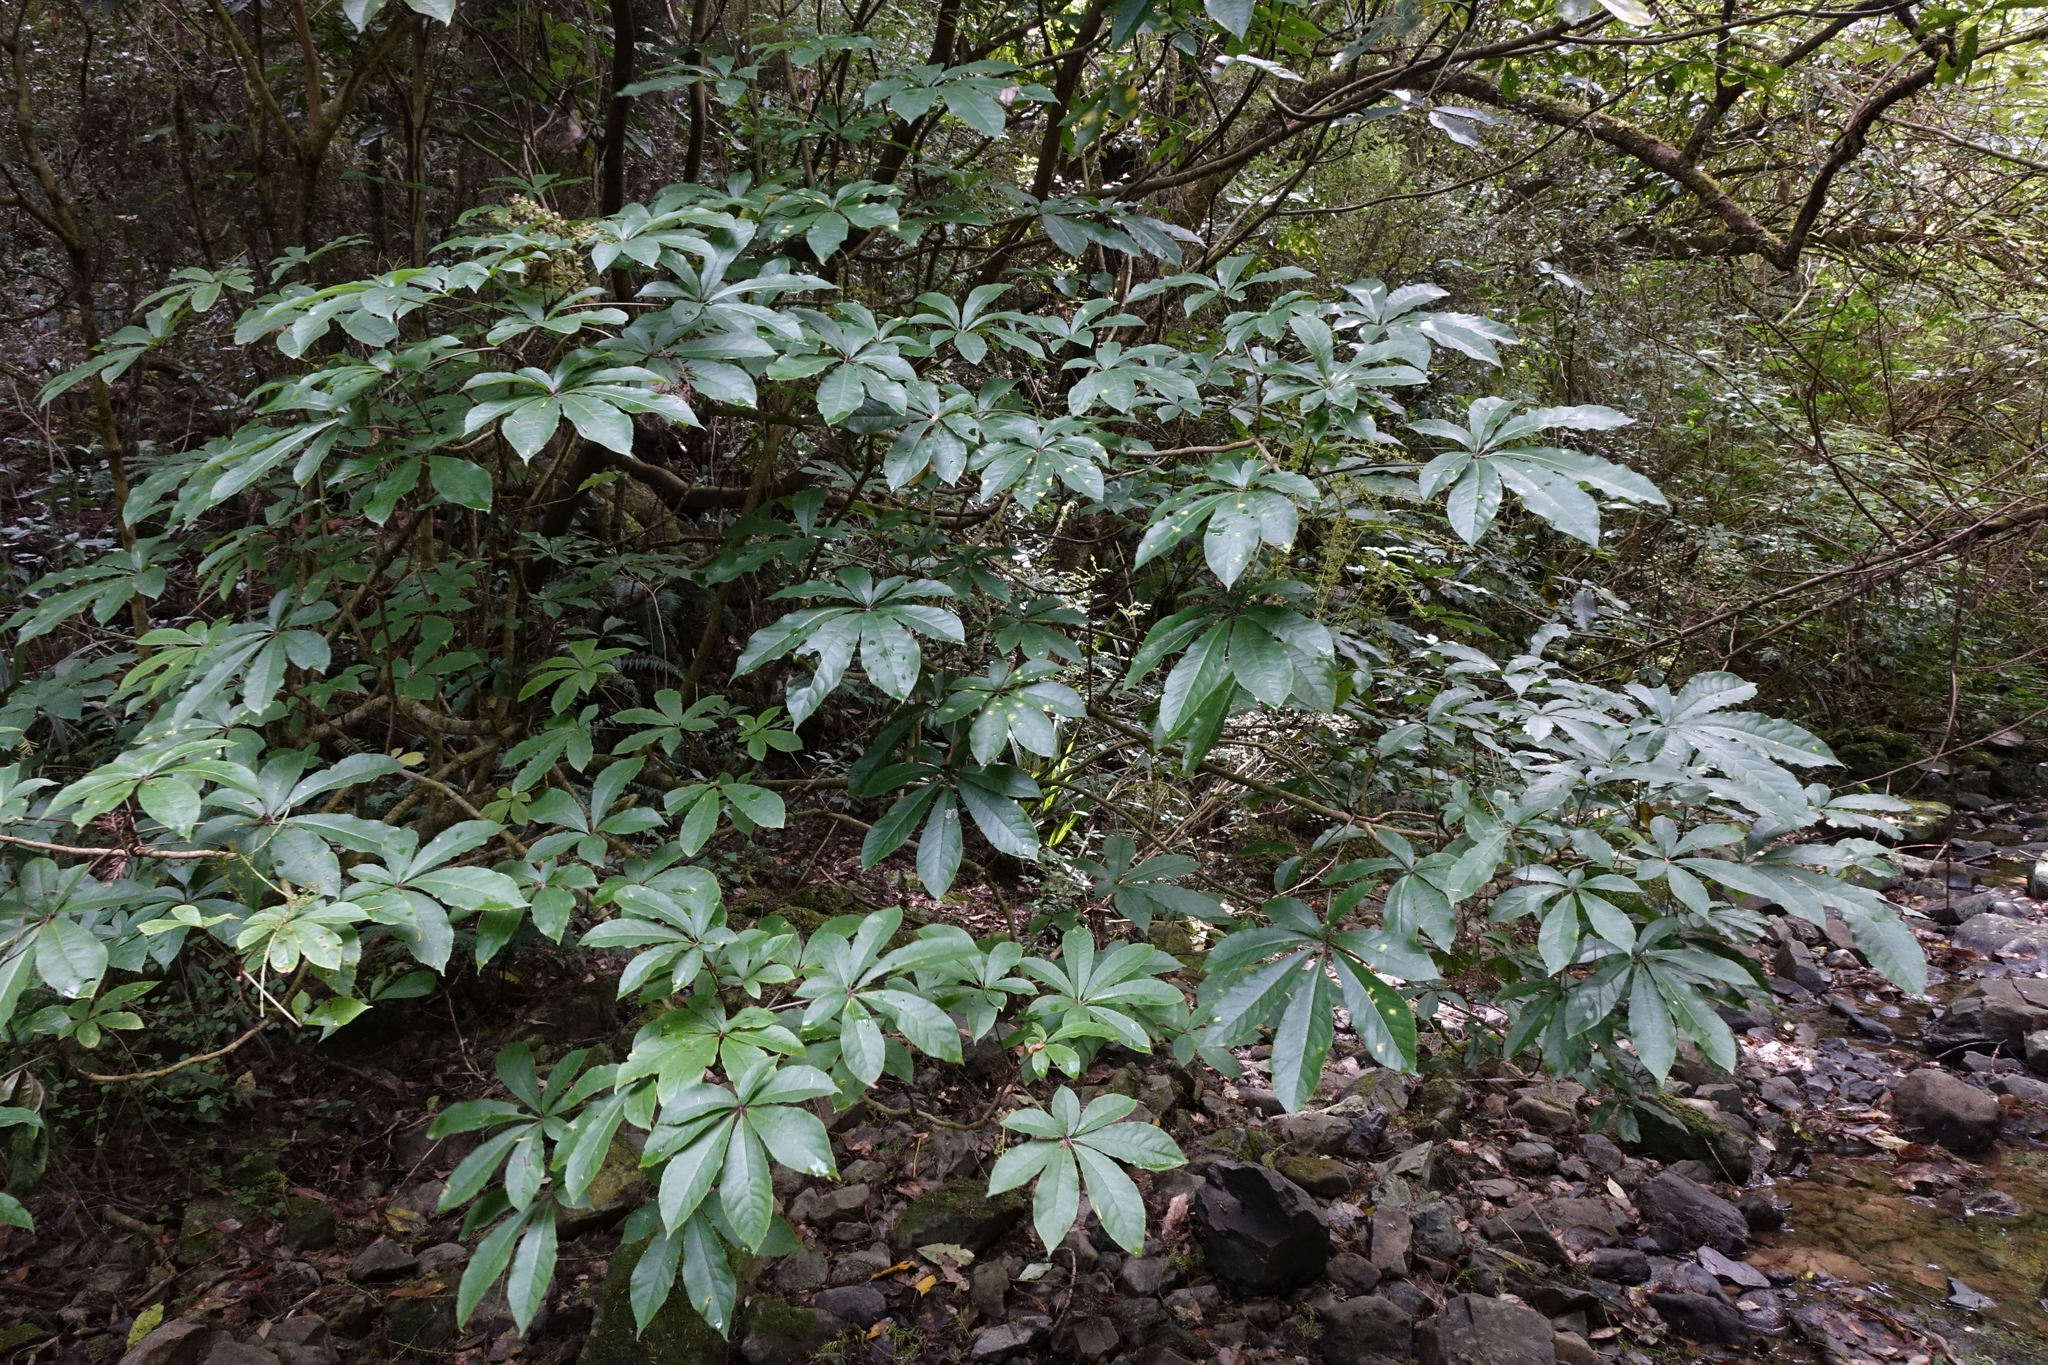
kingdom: Plantae
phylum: Tracheophyta
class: Magnoliopsida
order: Apiales
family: Araliaceae
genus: Schefflera
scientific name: Schefflera digitata
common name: Pate
